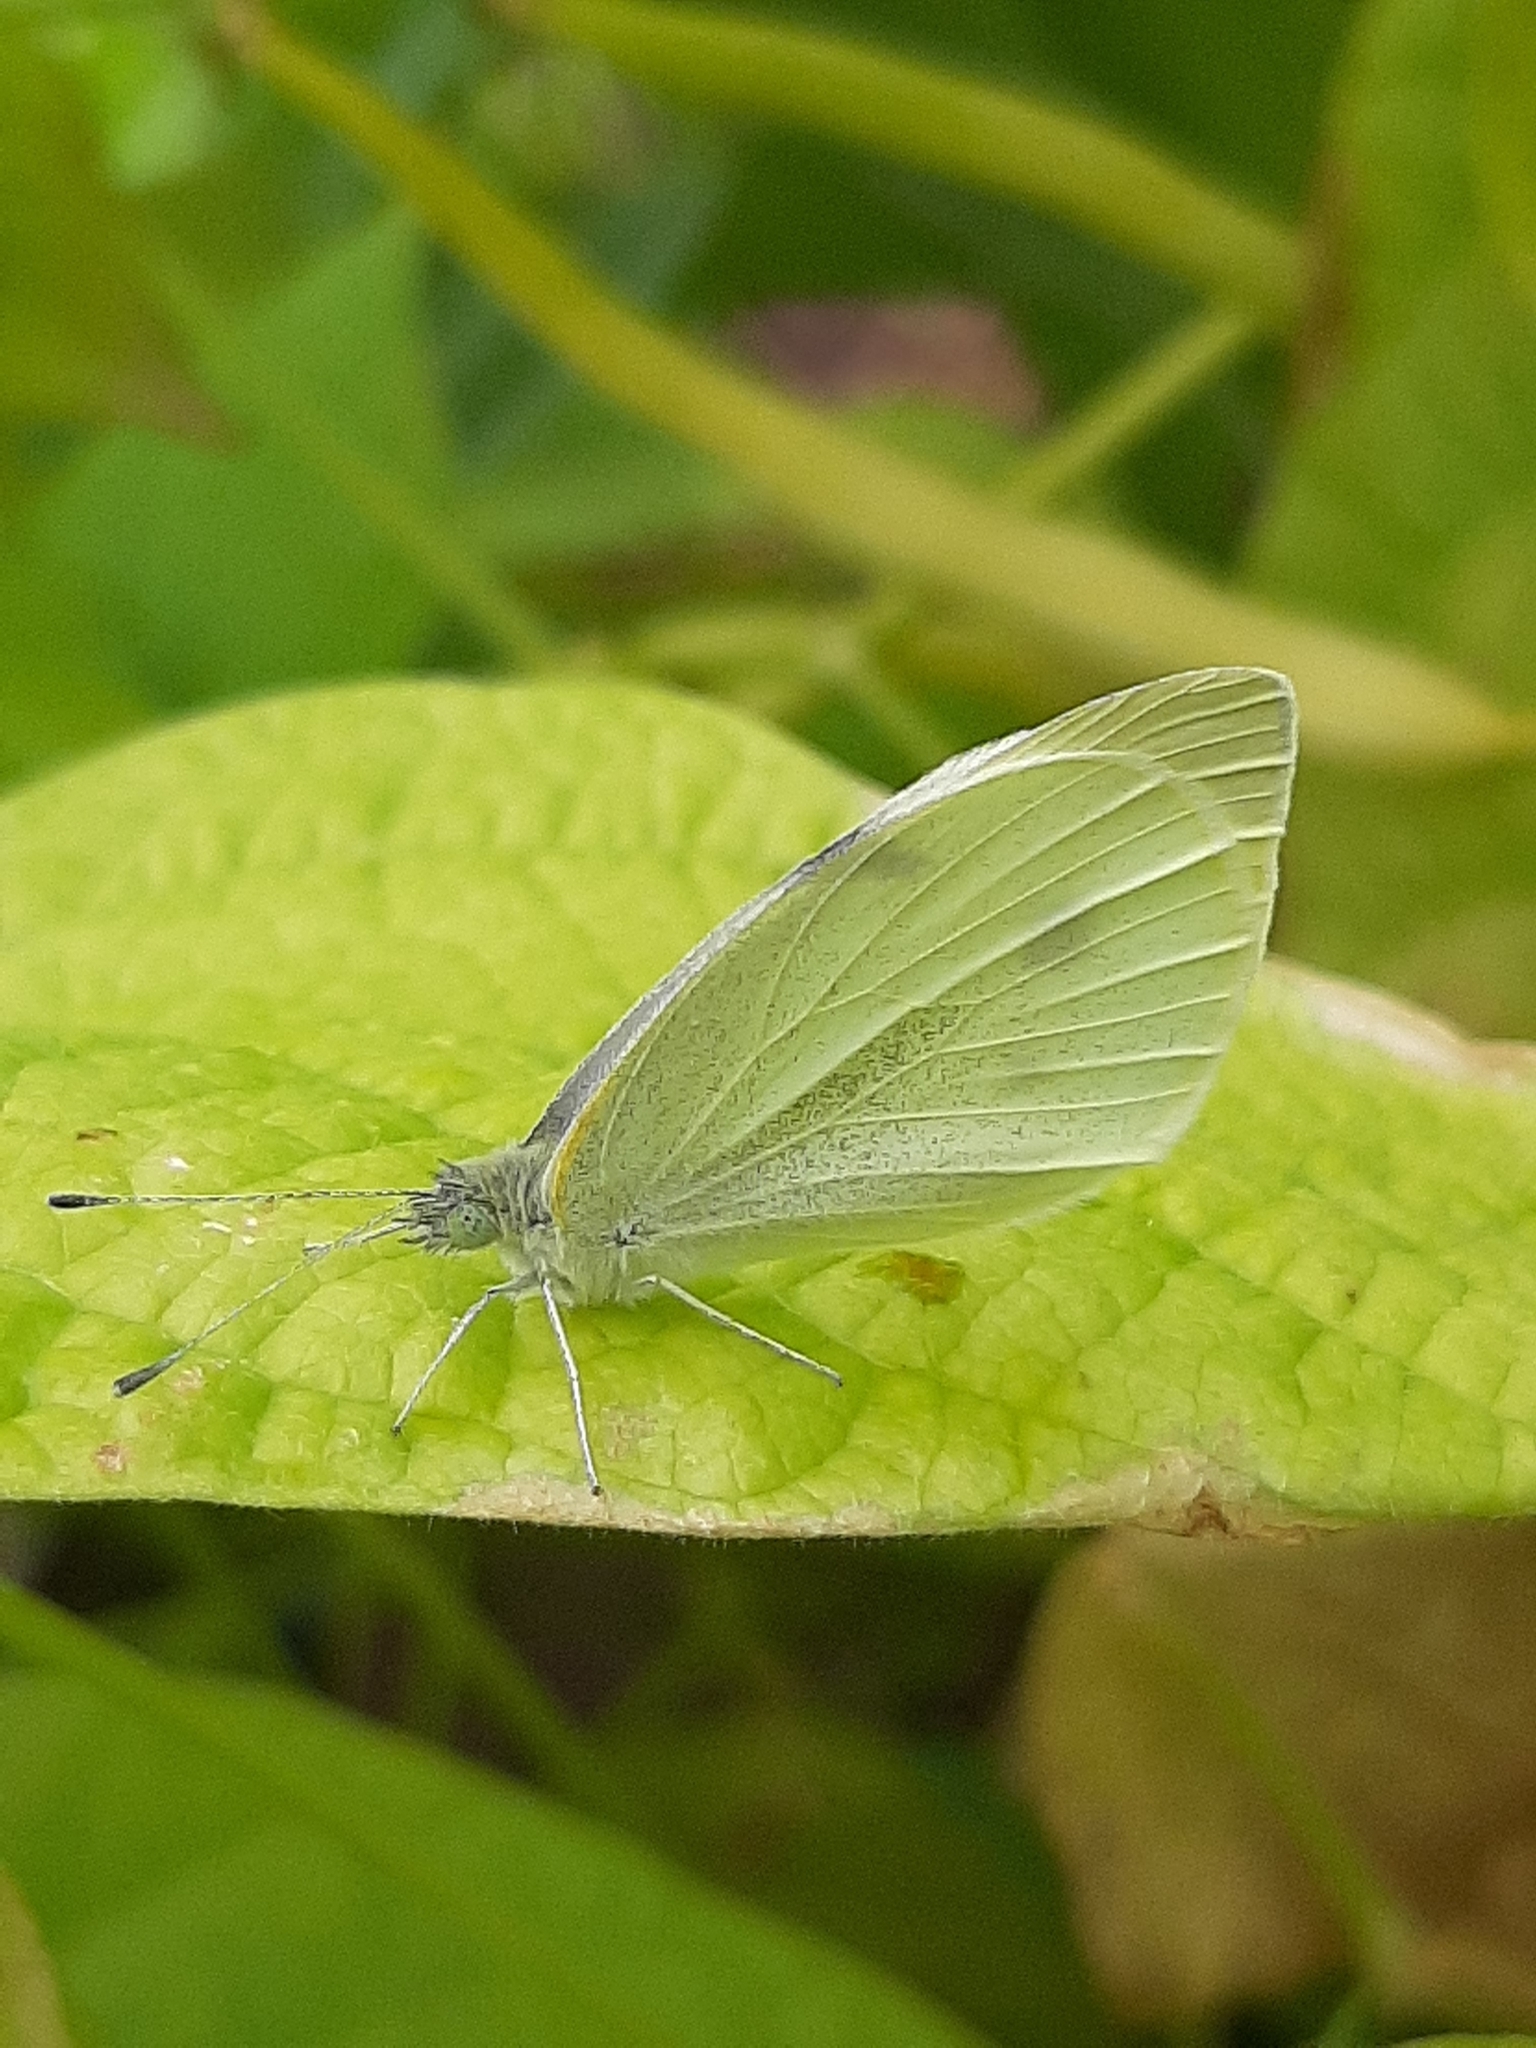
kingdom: Animalia
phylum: Arthropoda
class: Insecta
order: Lepidoptera
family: Pieridae
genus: Pieris
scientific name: Pieris rapae
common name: Small white
